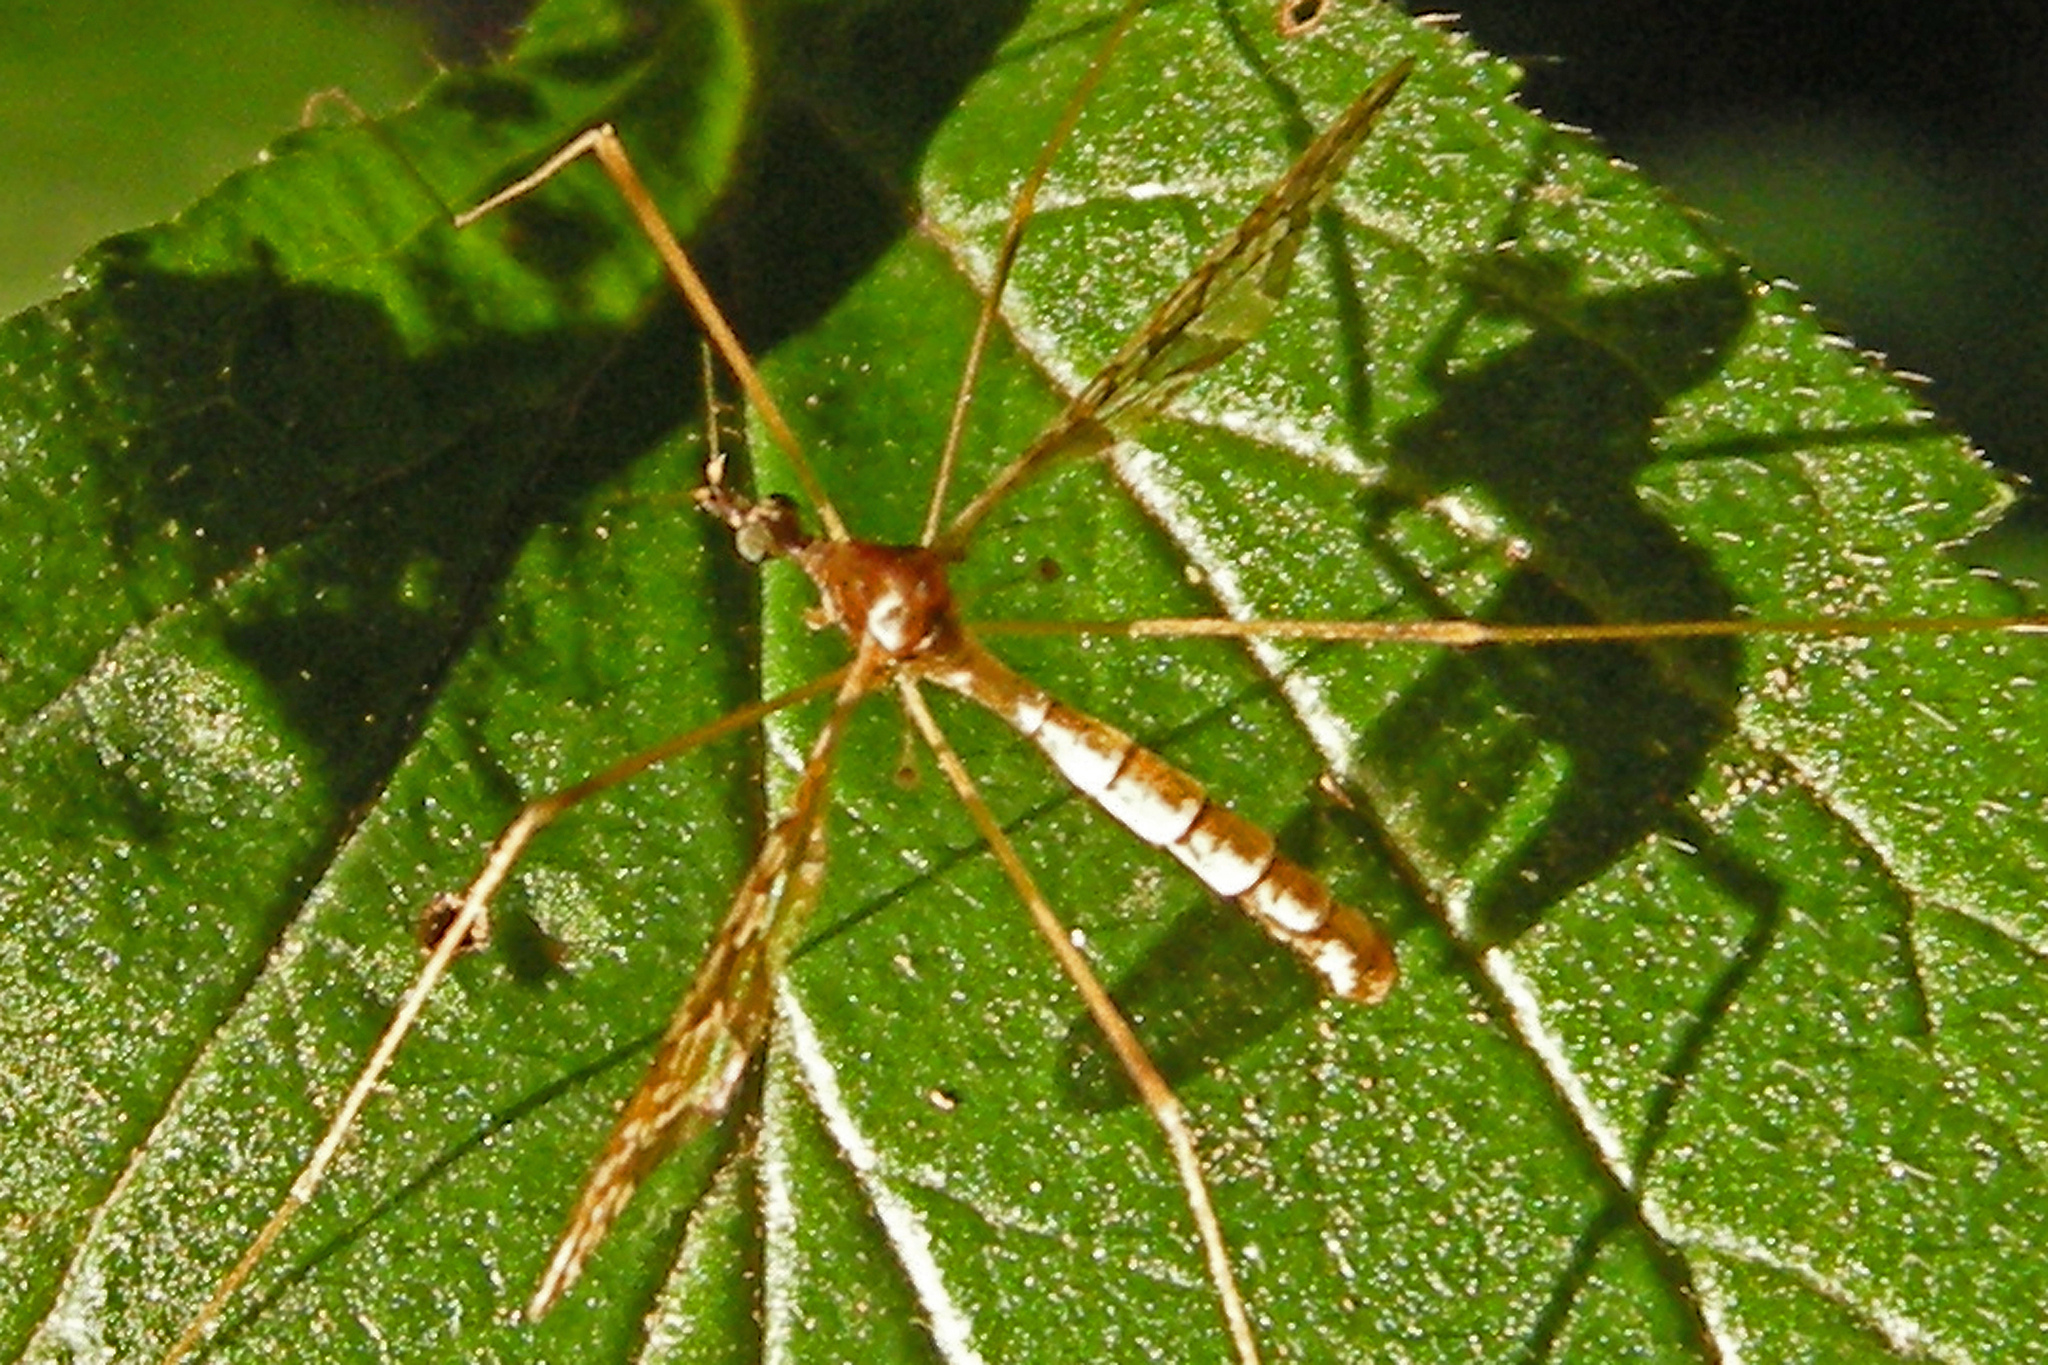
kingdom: Animalia
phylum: Arthropoda
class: Insecta
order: Diptera
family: Limoniidae
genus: Epiphragma
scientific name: Epiphragma solatrix
